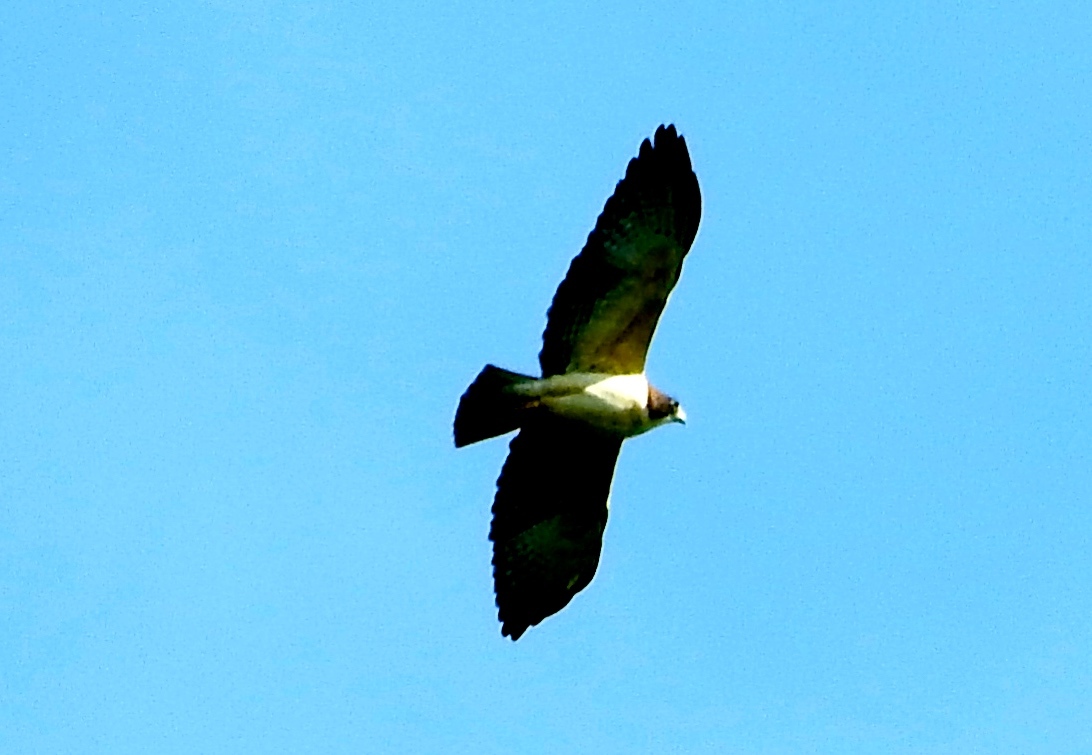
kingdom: Animalia
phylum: Chordata
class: Aves
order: Accipitriformes
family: Accipitridae
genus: Buteo
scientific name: Buteo brachyurus
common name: Short-tailed hawk
